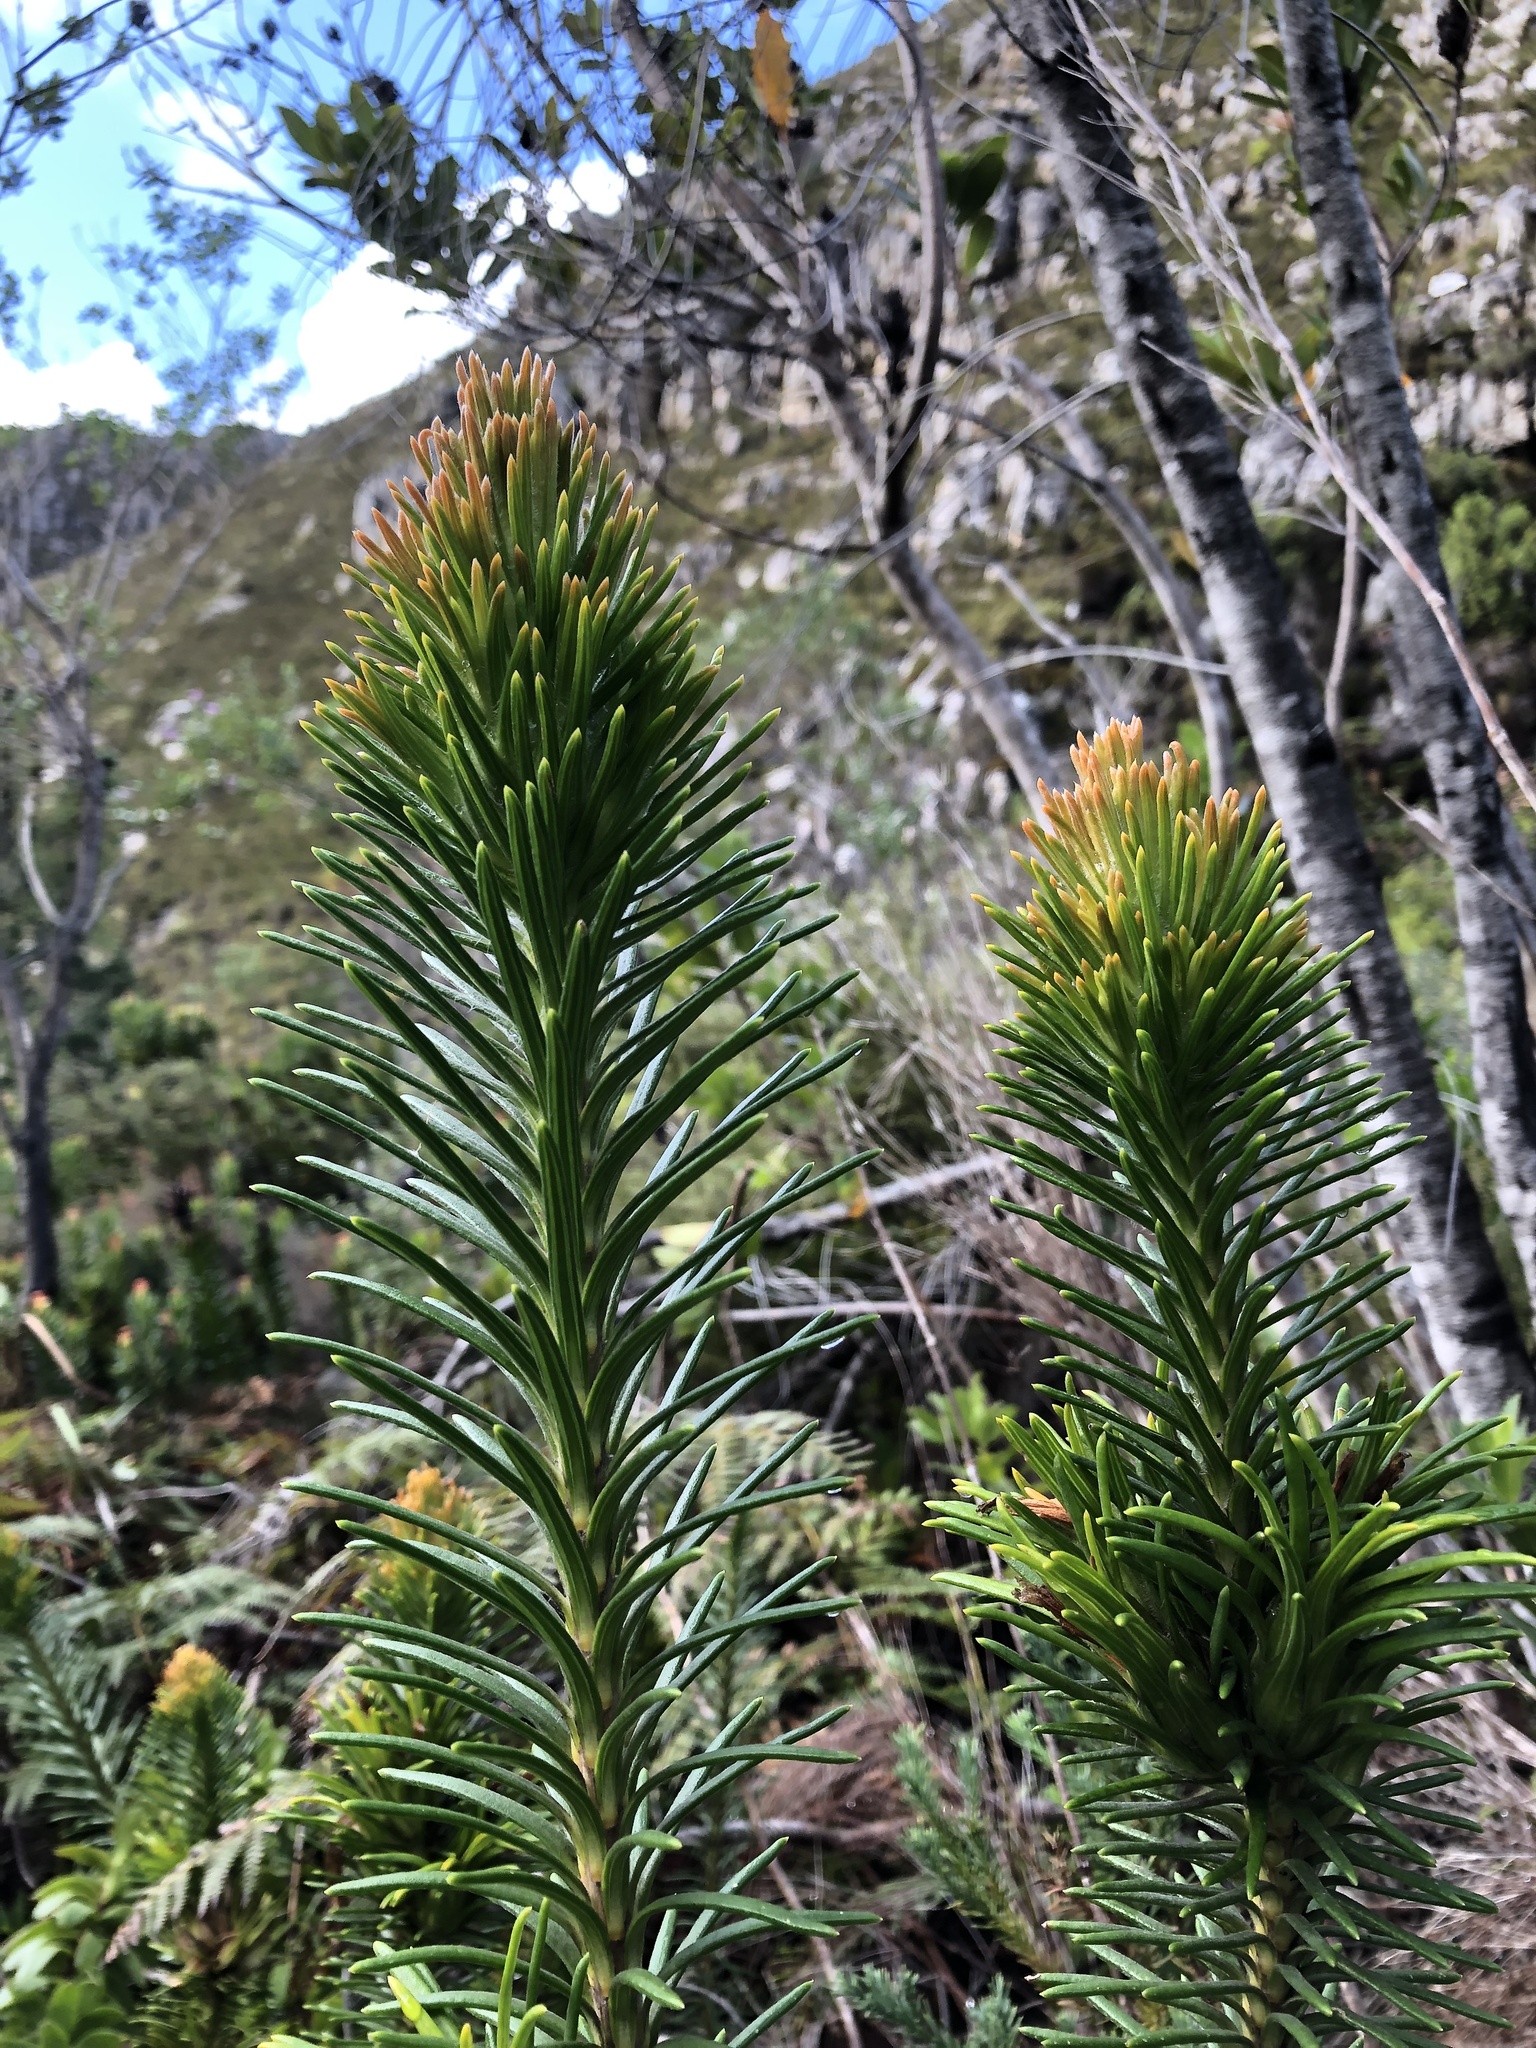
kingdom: Plantae
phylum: Tracheophyta
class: Magnoliopsida
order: Lamiales
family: Stilbaceae
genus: Retzia
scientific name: Retzia capensis
